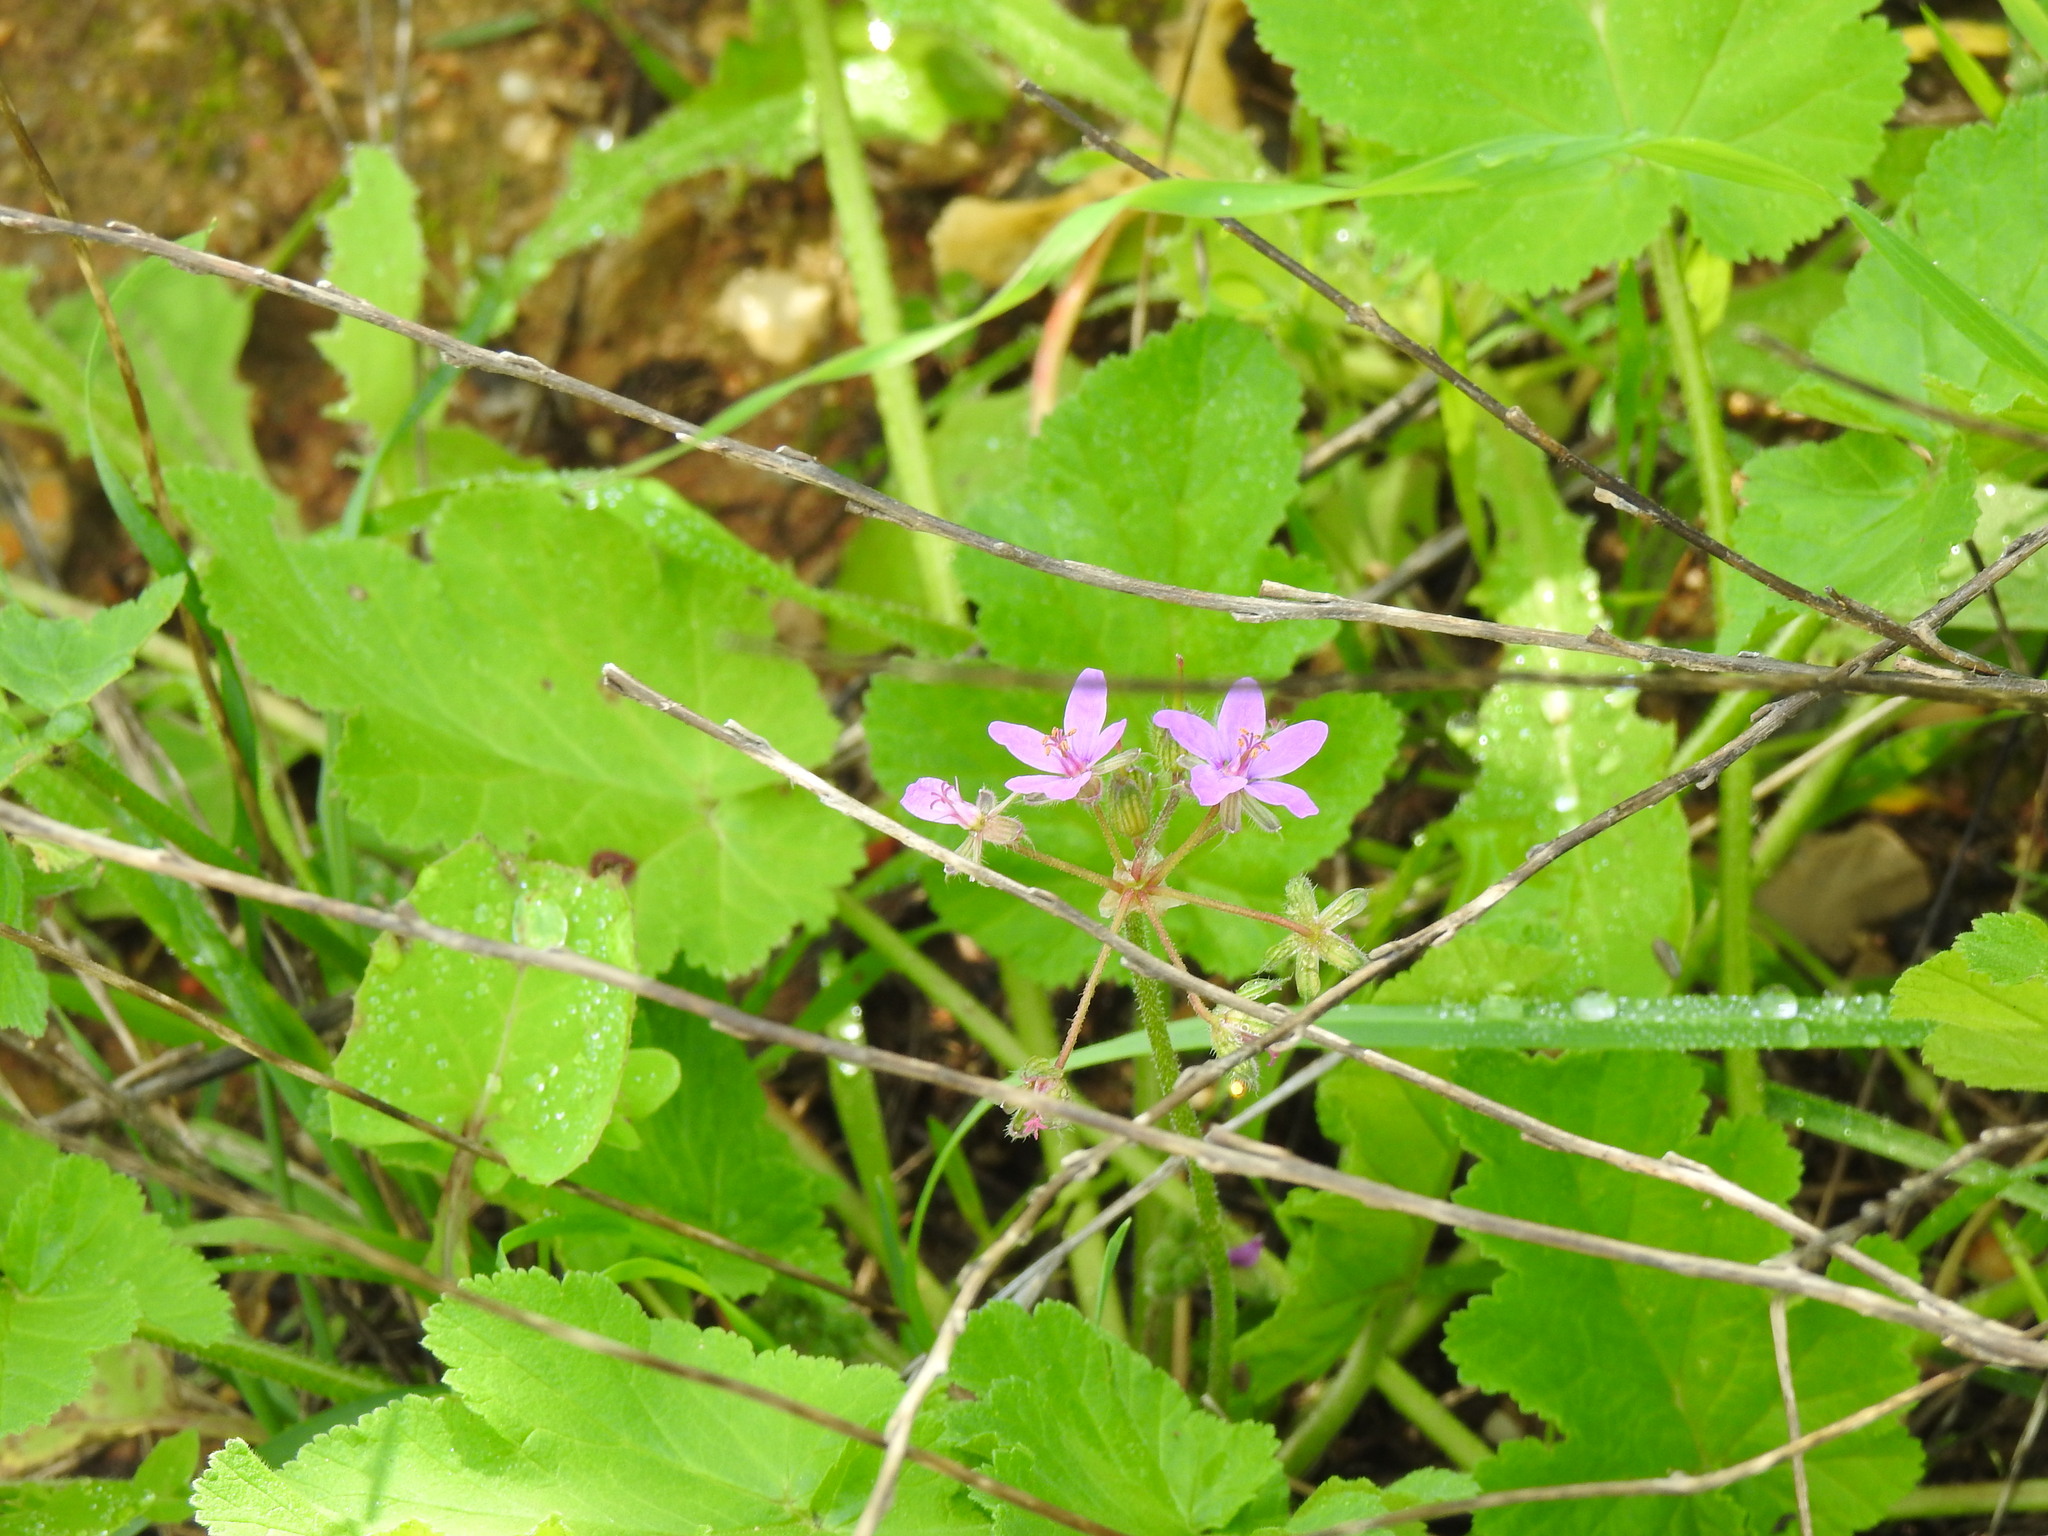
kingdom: Plantae
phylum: Tracheophyta
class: Magnoliopsida
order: Geraniales
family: Geraniaceae
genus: Erodium
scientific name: Erodium malacoides
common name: Soft stork's-bill
